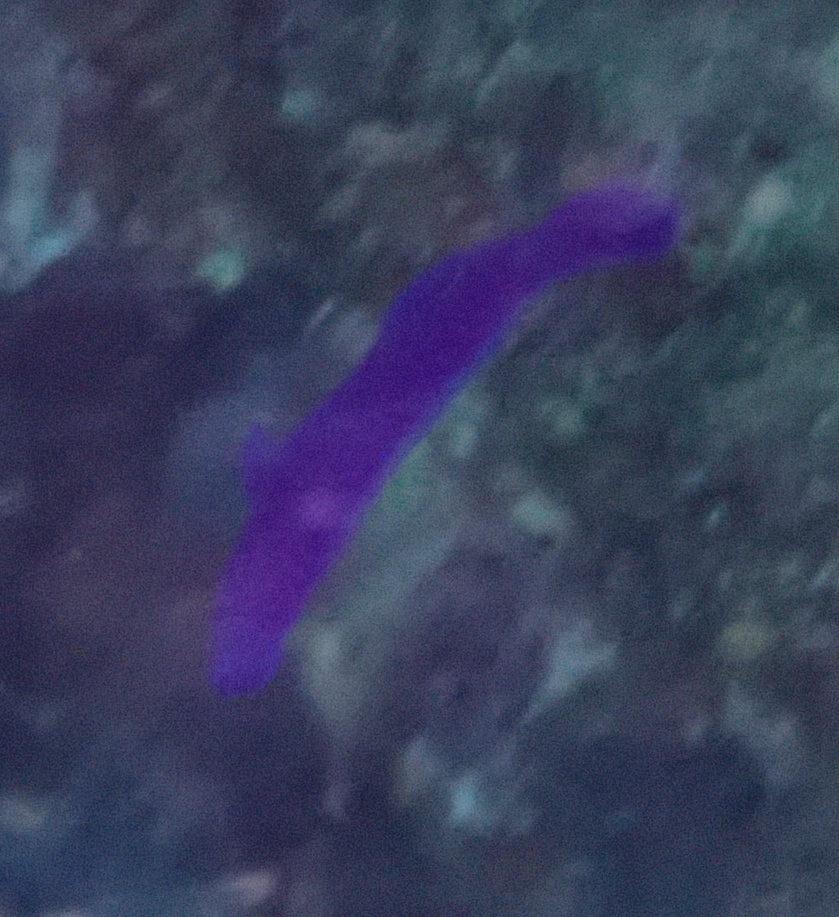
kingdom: Animalia
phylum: Chordata
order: Perciformes
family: Pseudochromidae
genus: Pseudochromis
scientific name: Pseudochromis fridmani
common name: Orchid dottyback
